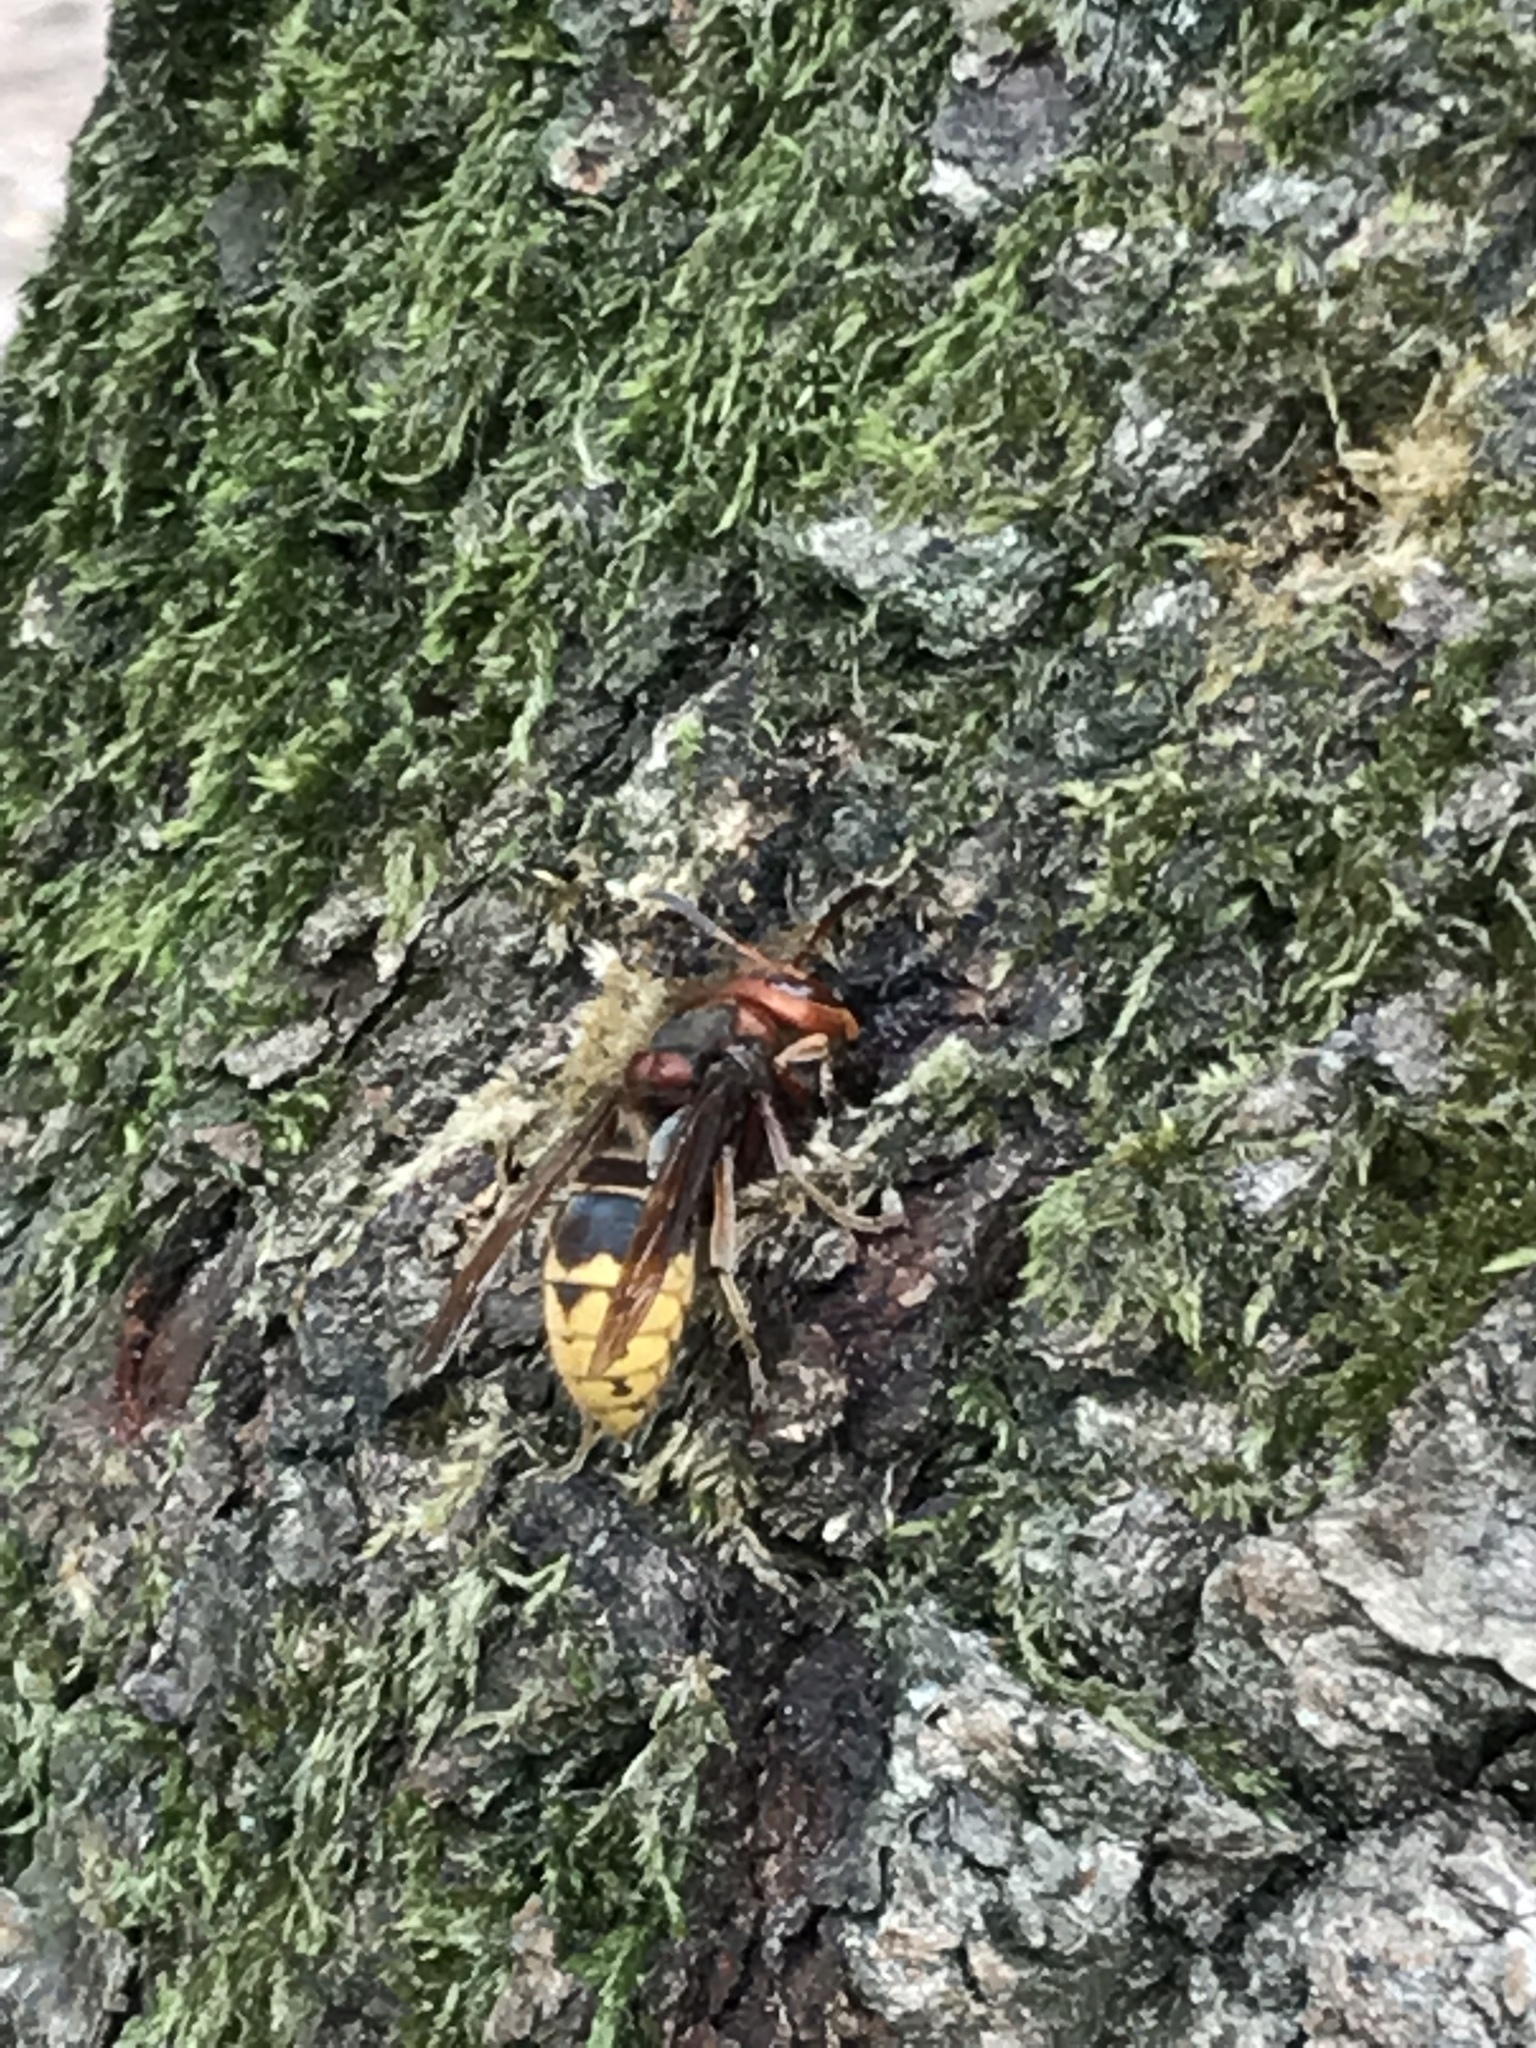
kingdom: Animalia
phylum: Arthropoda
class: Insecta
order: Hymenoptera
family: Vespidae
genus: Vespa
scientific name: Vespa crabro
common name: Hornet
